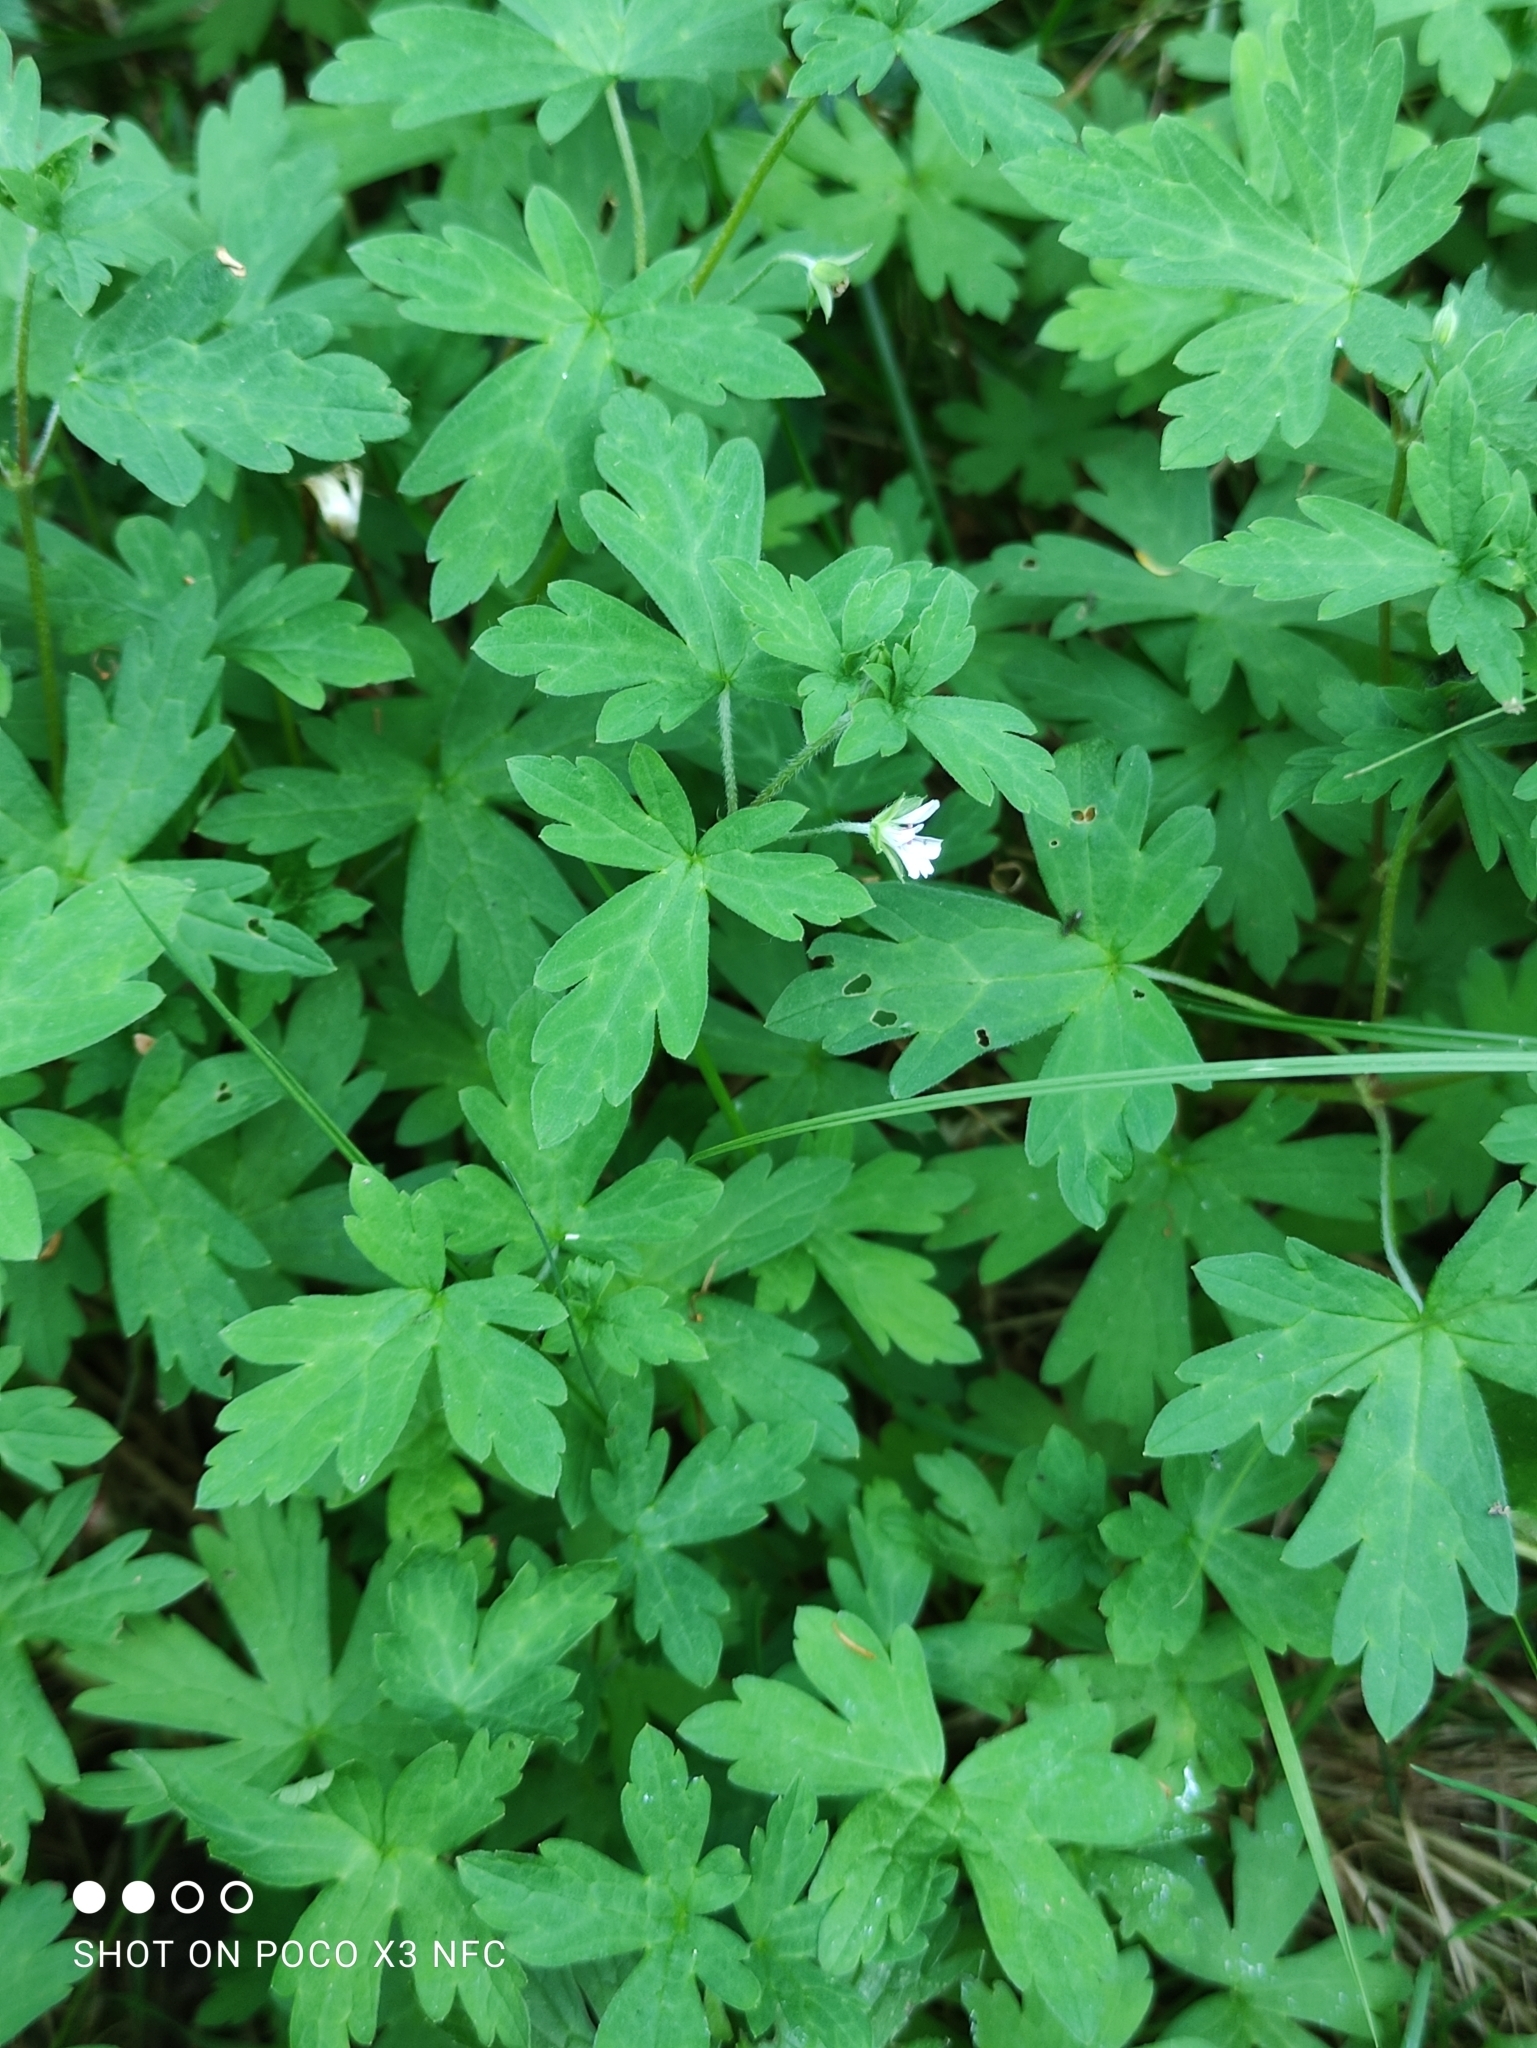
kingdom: Plantae
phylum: Tracheophyta
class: Magnoliopsida
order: Geraniales
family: Geraniaceae
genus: Geranium
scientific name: Geranium sibiricum
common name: Siberian crane's-bill
